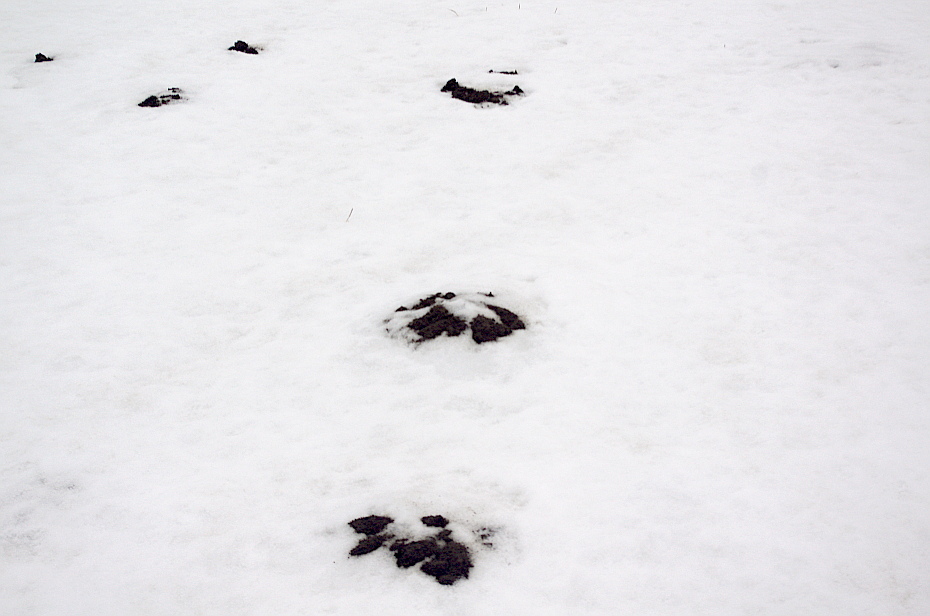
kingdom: Animalia
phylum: Chordata
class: Mammalia
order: Soricomorpha
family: Talpidae
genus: Talpa
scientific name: Talpa europaea
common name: European mole
